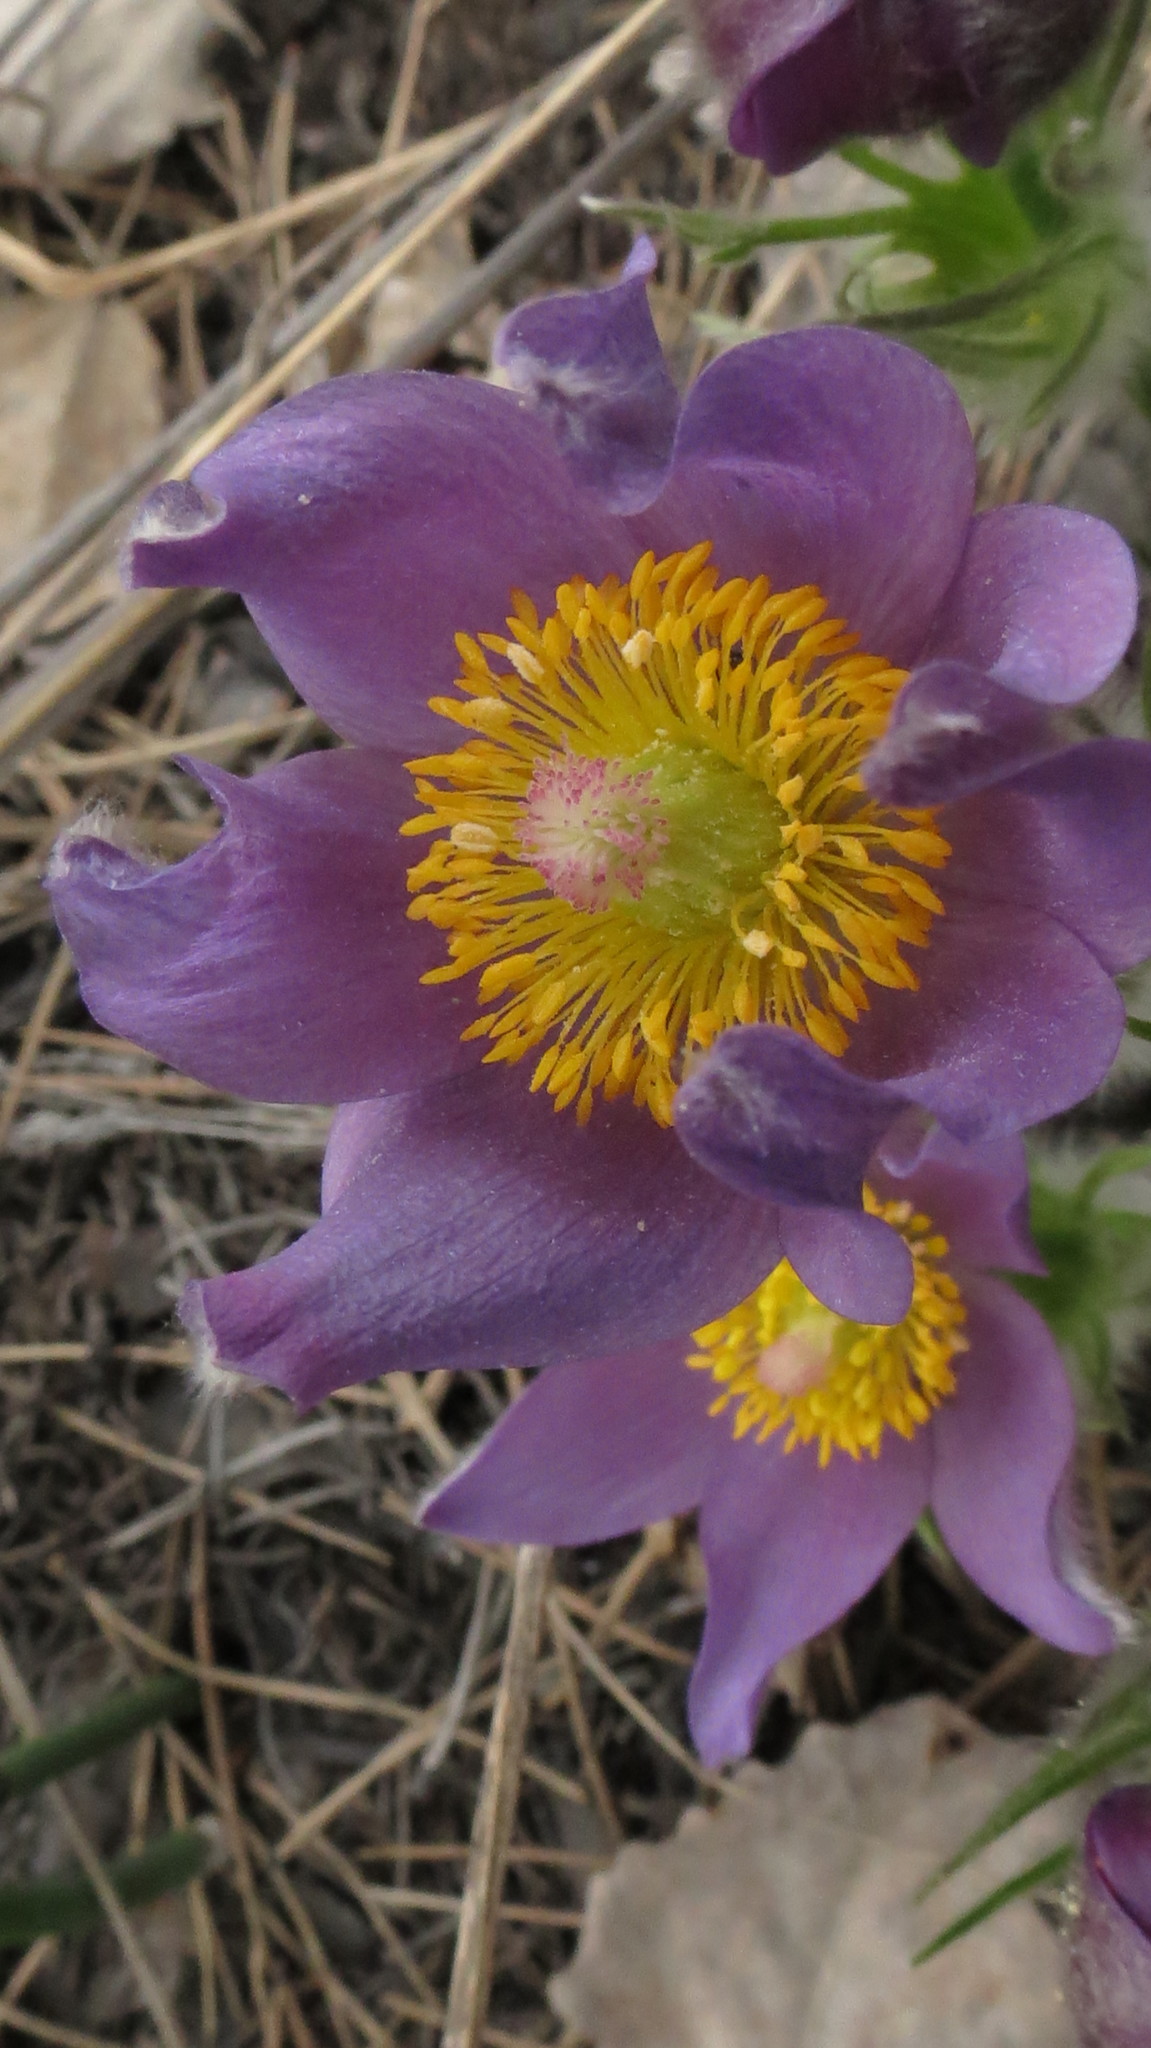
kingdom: Plantae
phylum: Tracheophyta
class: Magnoliopsida
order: Ranunculales
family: Ranunculaceae
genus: Pulsatilla
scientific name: Pulsatilla patens
